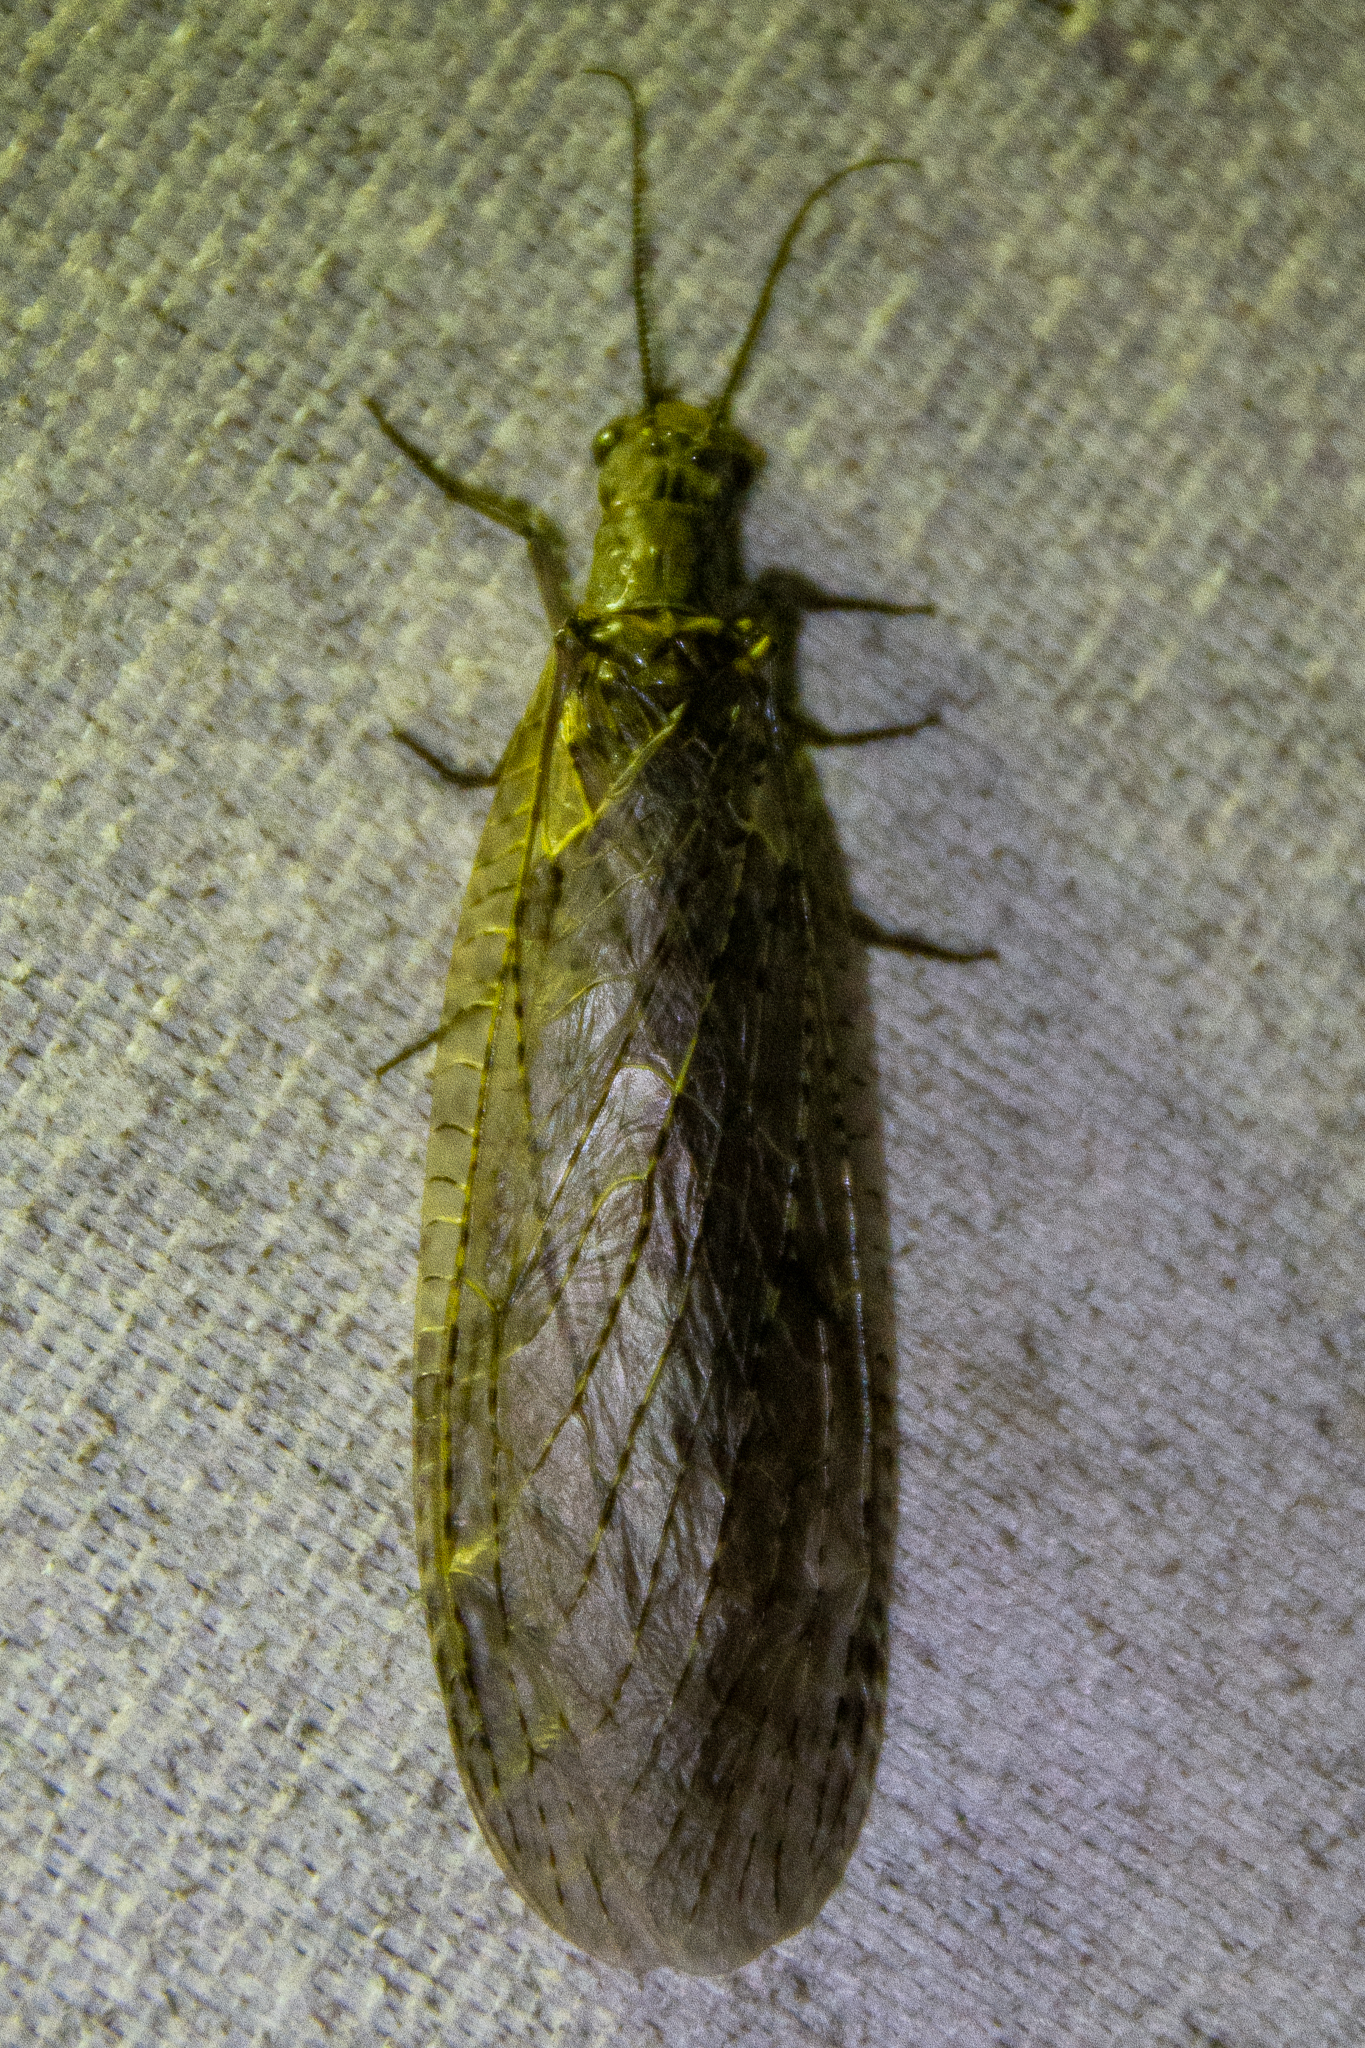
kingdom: Animalia
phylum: Arthropoda
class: Insecta
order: Megaloptera
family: Corydalidae
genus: Chauliodes
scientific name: Chauliodes rastricornis
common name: Spring fishfly
